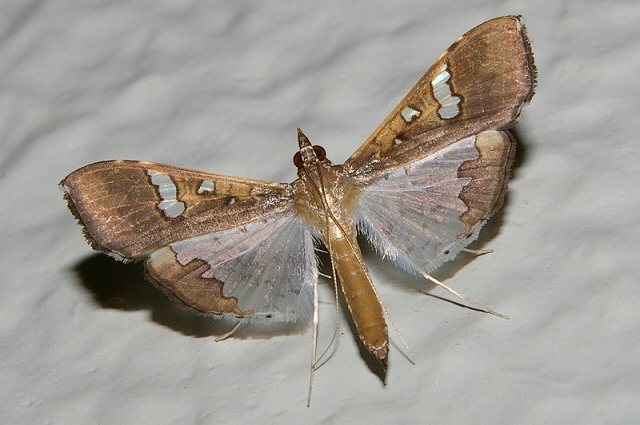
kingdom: Animalia
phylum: Arthropoda
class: Insecta
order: Lepidoptera
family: Crambidae
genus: Maruca
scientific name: Maruca vitrata
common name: Maruca pod borer
